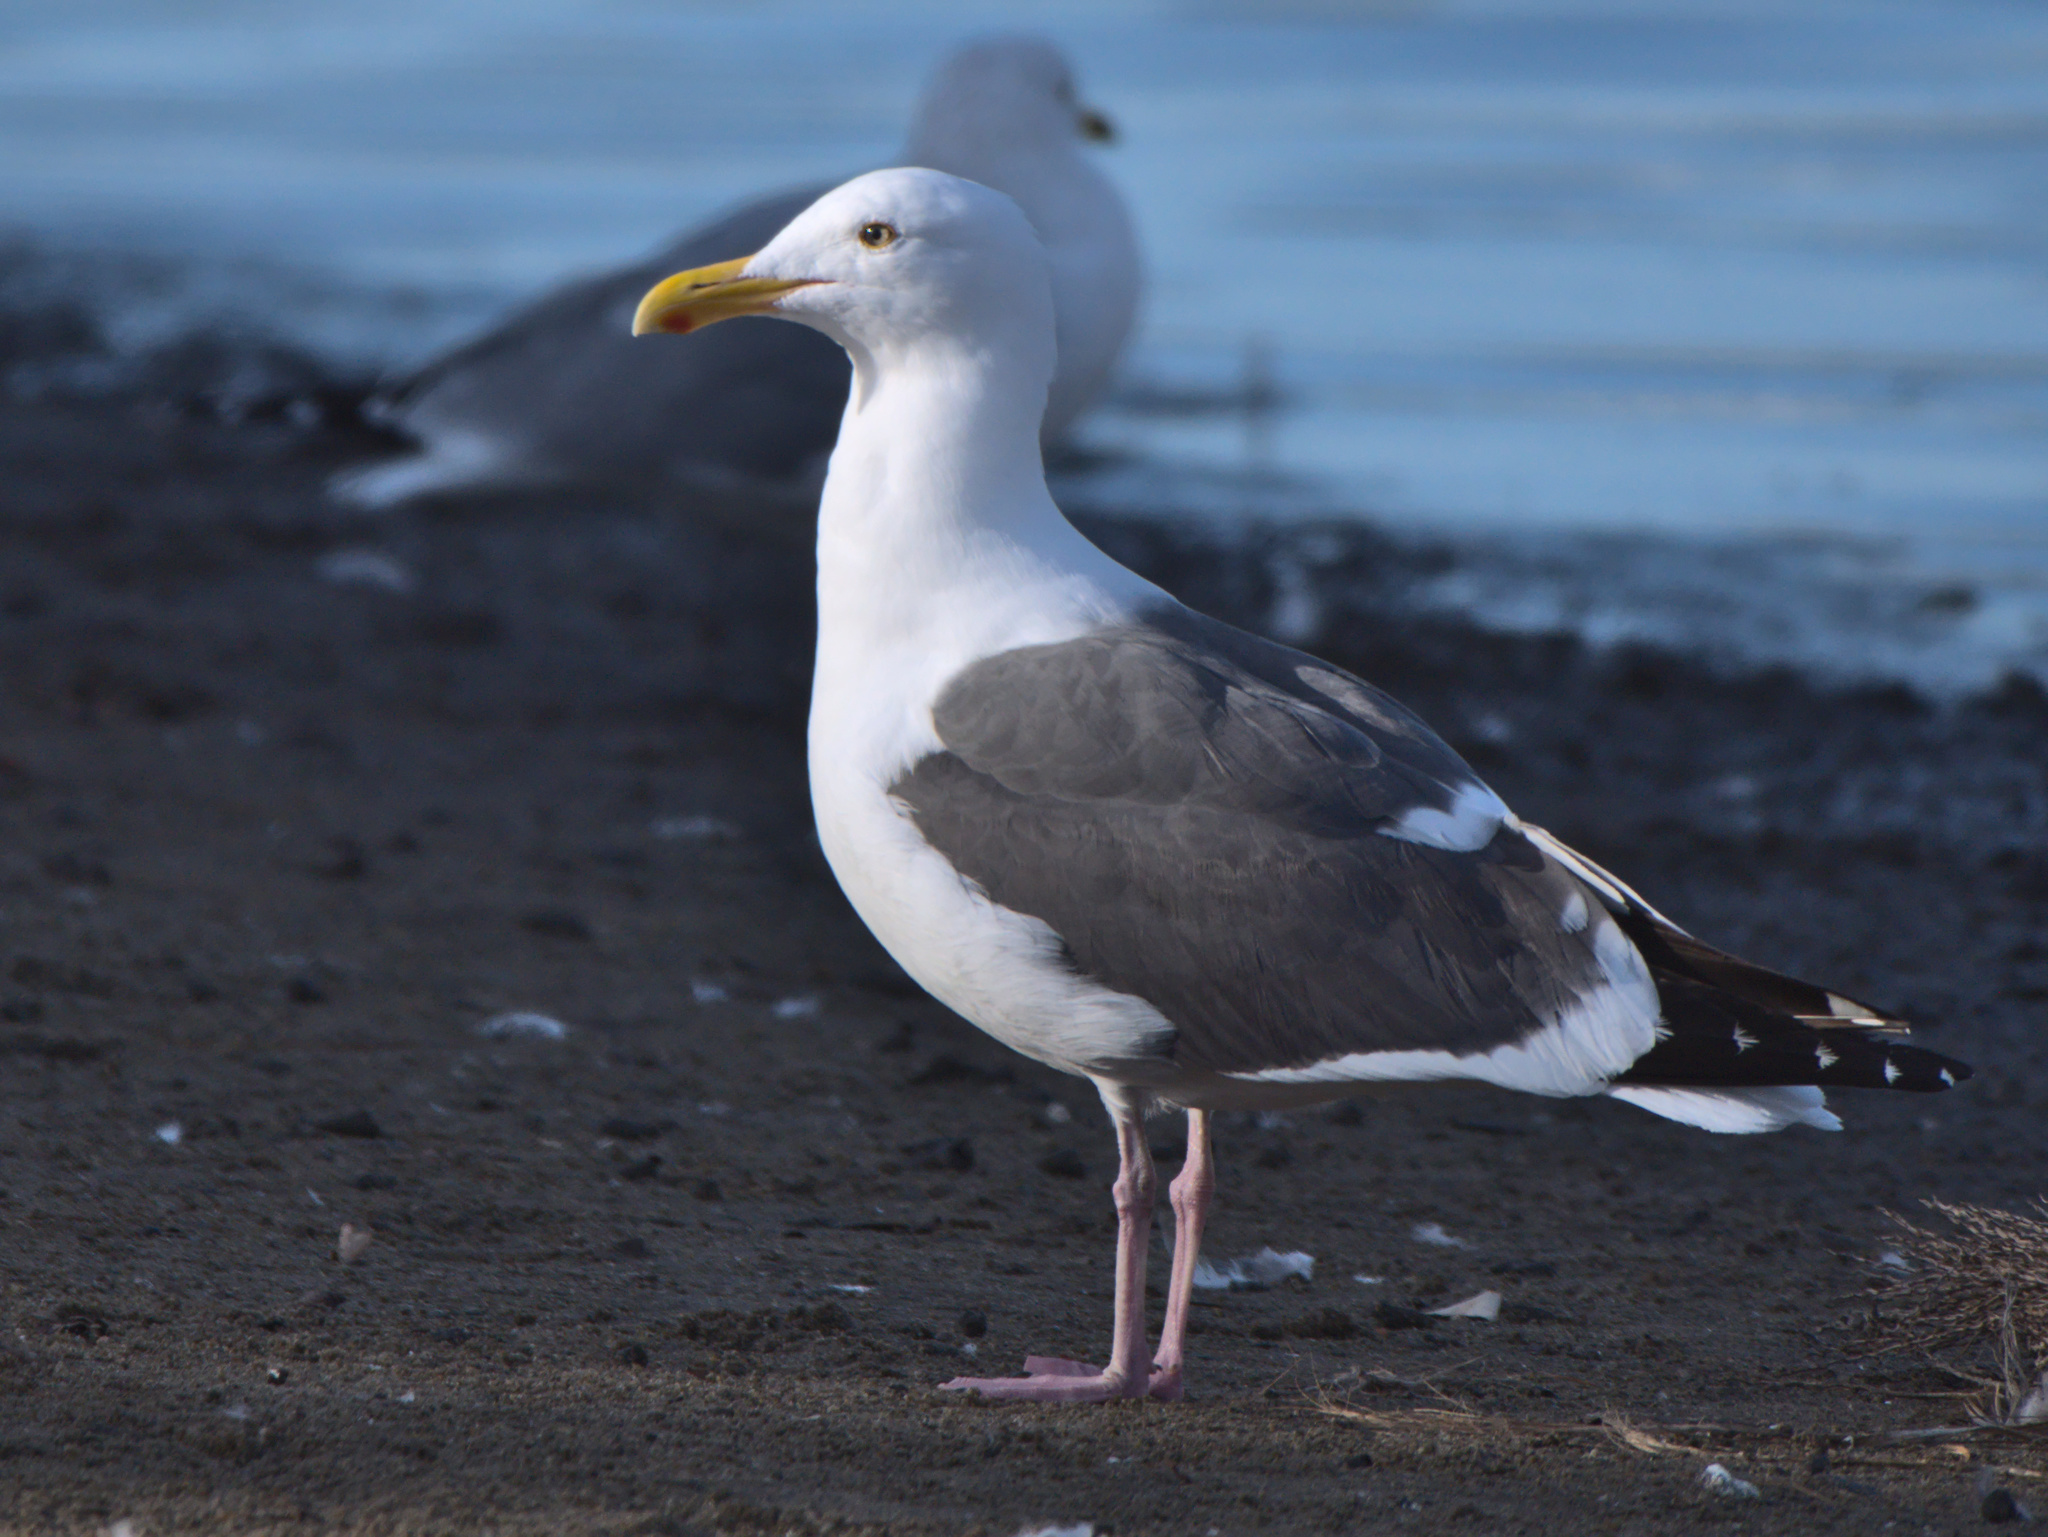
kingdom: Animalia
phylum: Chordata
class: Aves
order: Charadriiformes
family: Laridae
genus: Larus
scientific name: Larus occidentalis
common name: Western gull
